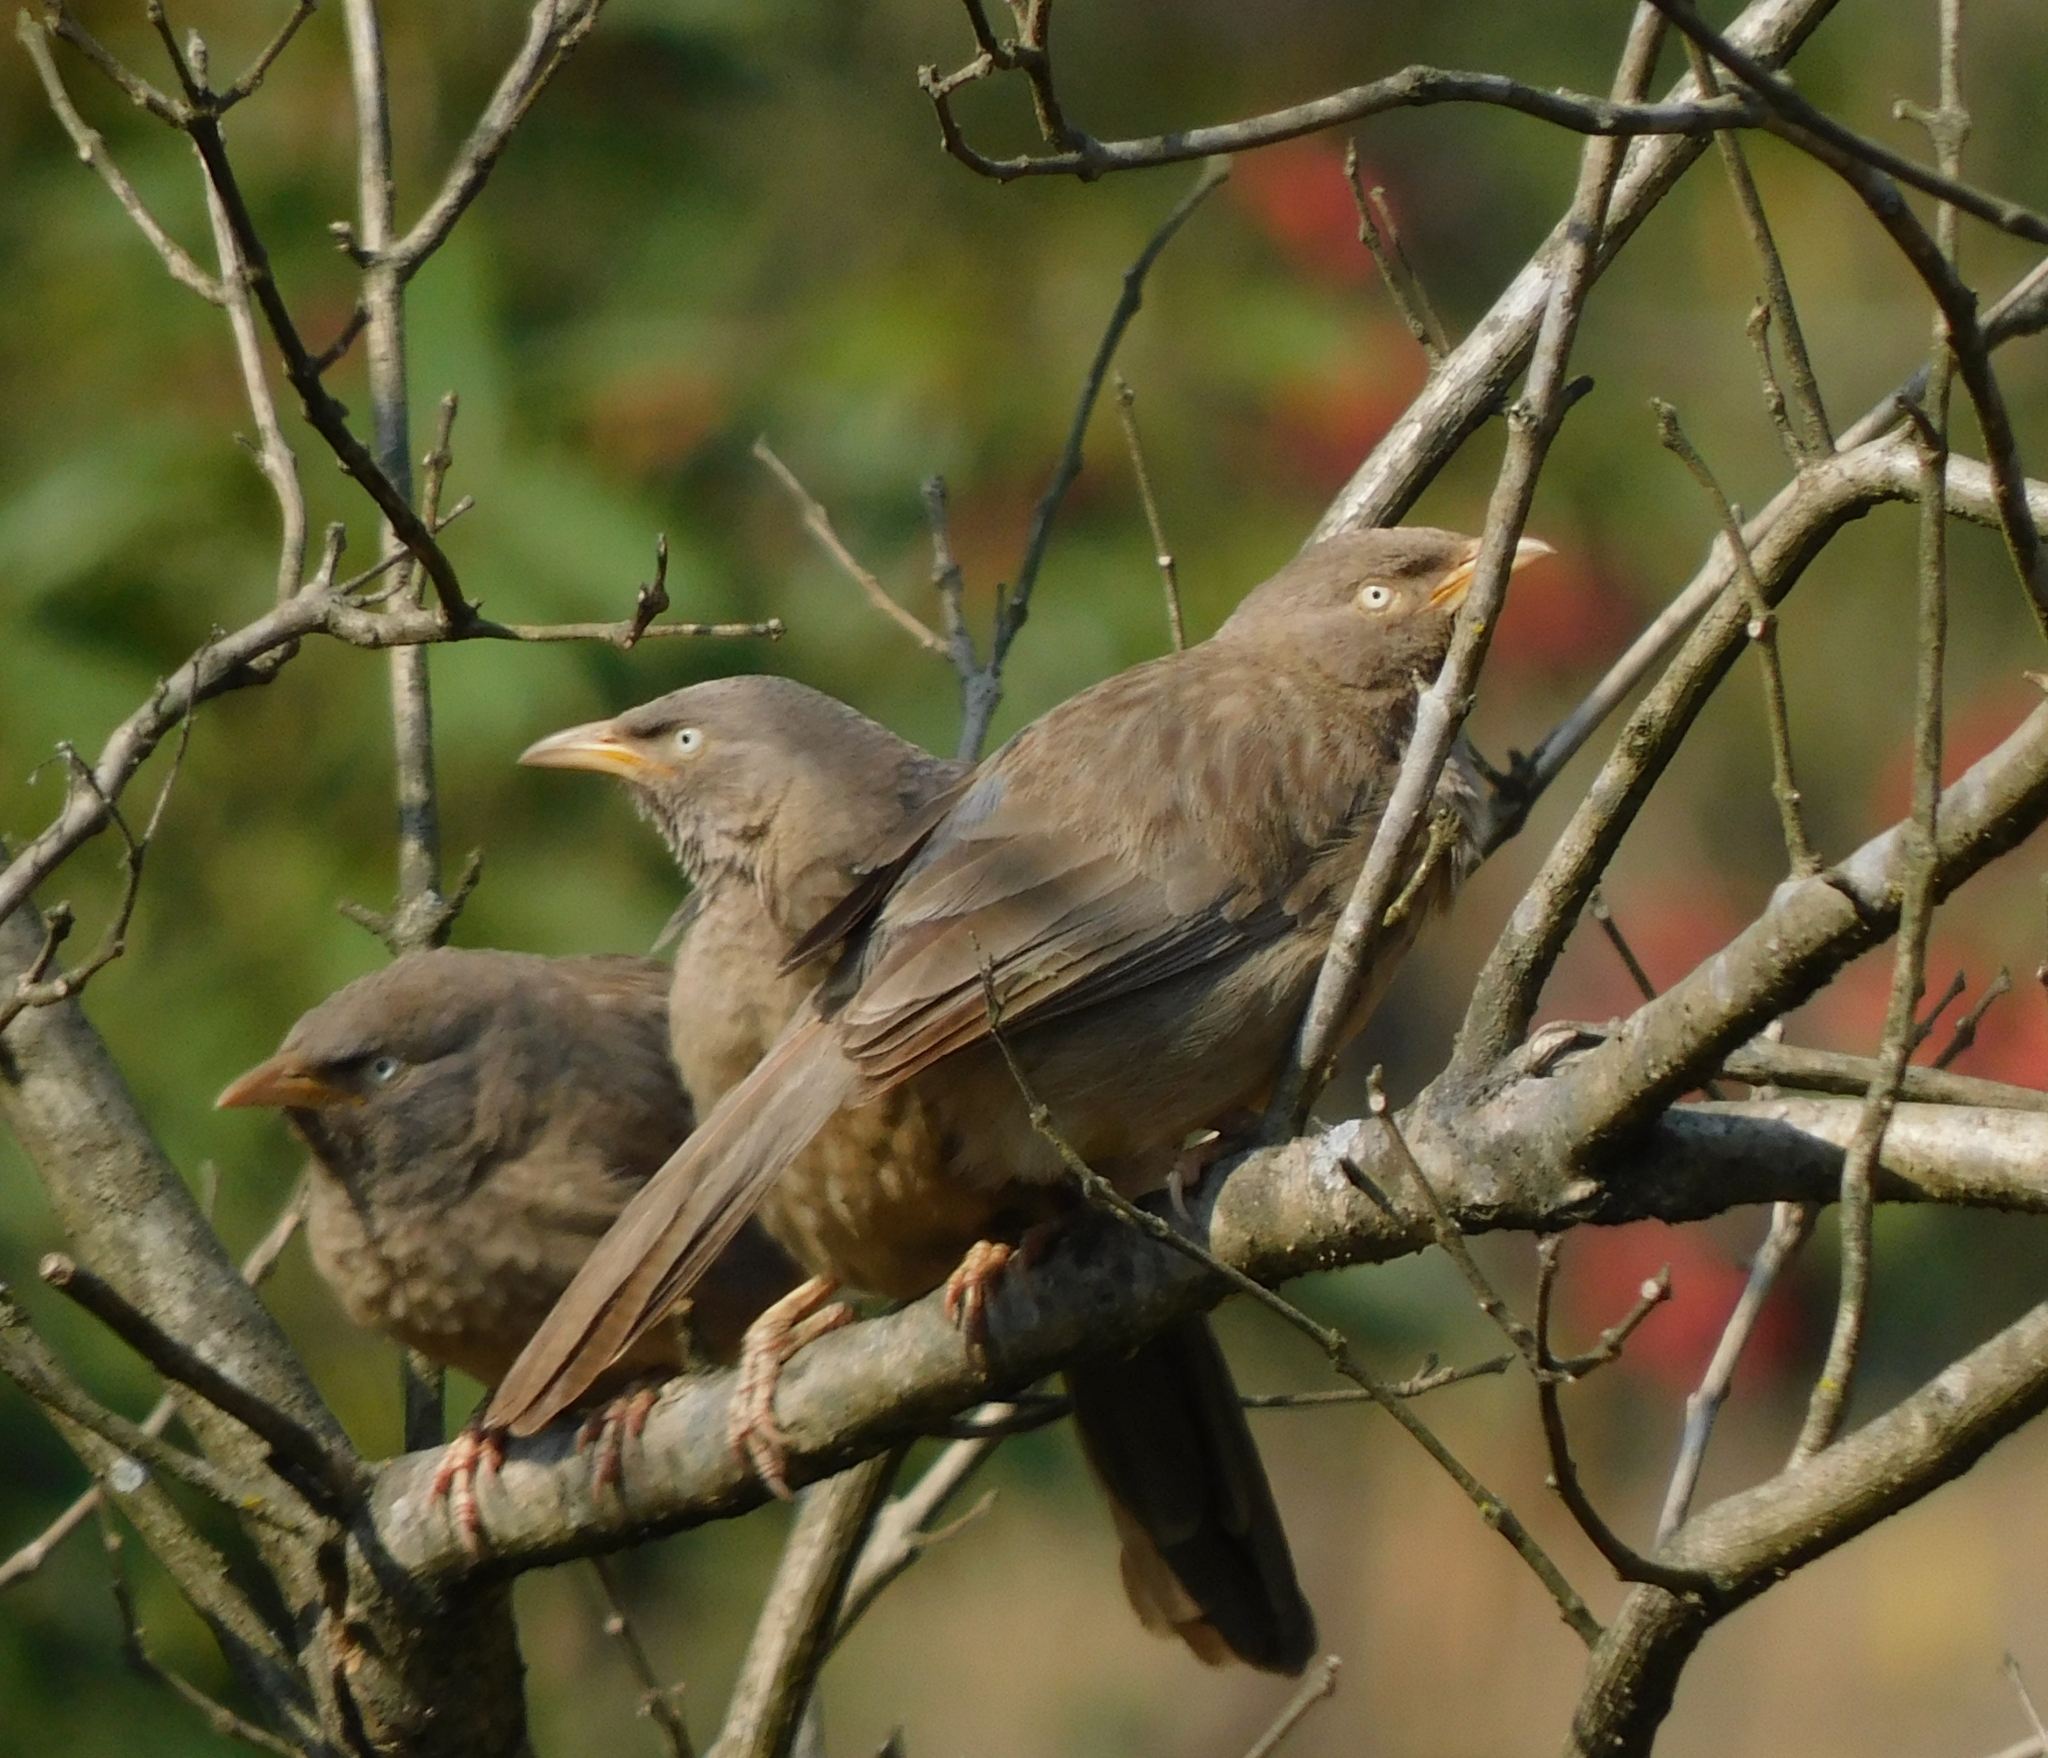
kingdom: Animalia
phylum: Chordata
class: Aves
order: Passeriformes
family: Leiothrichidae
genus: Turdoides
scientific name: Turdoides striata
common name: Jungle babbler
